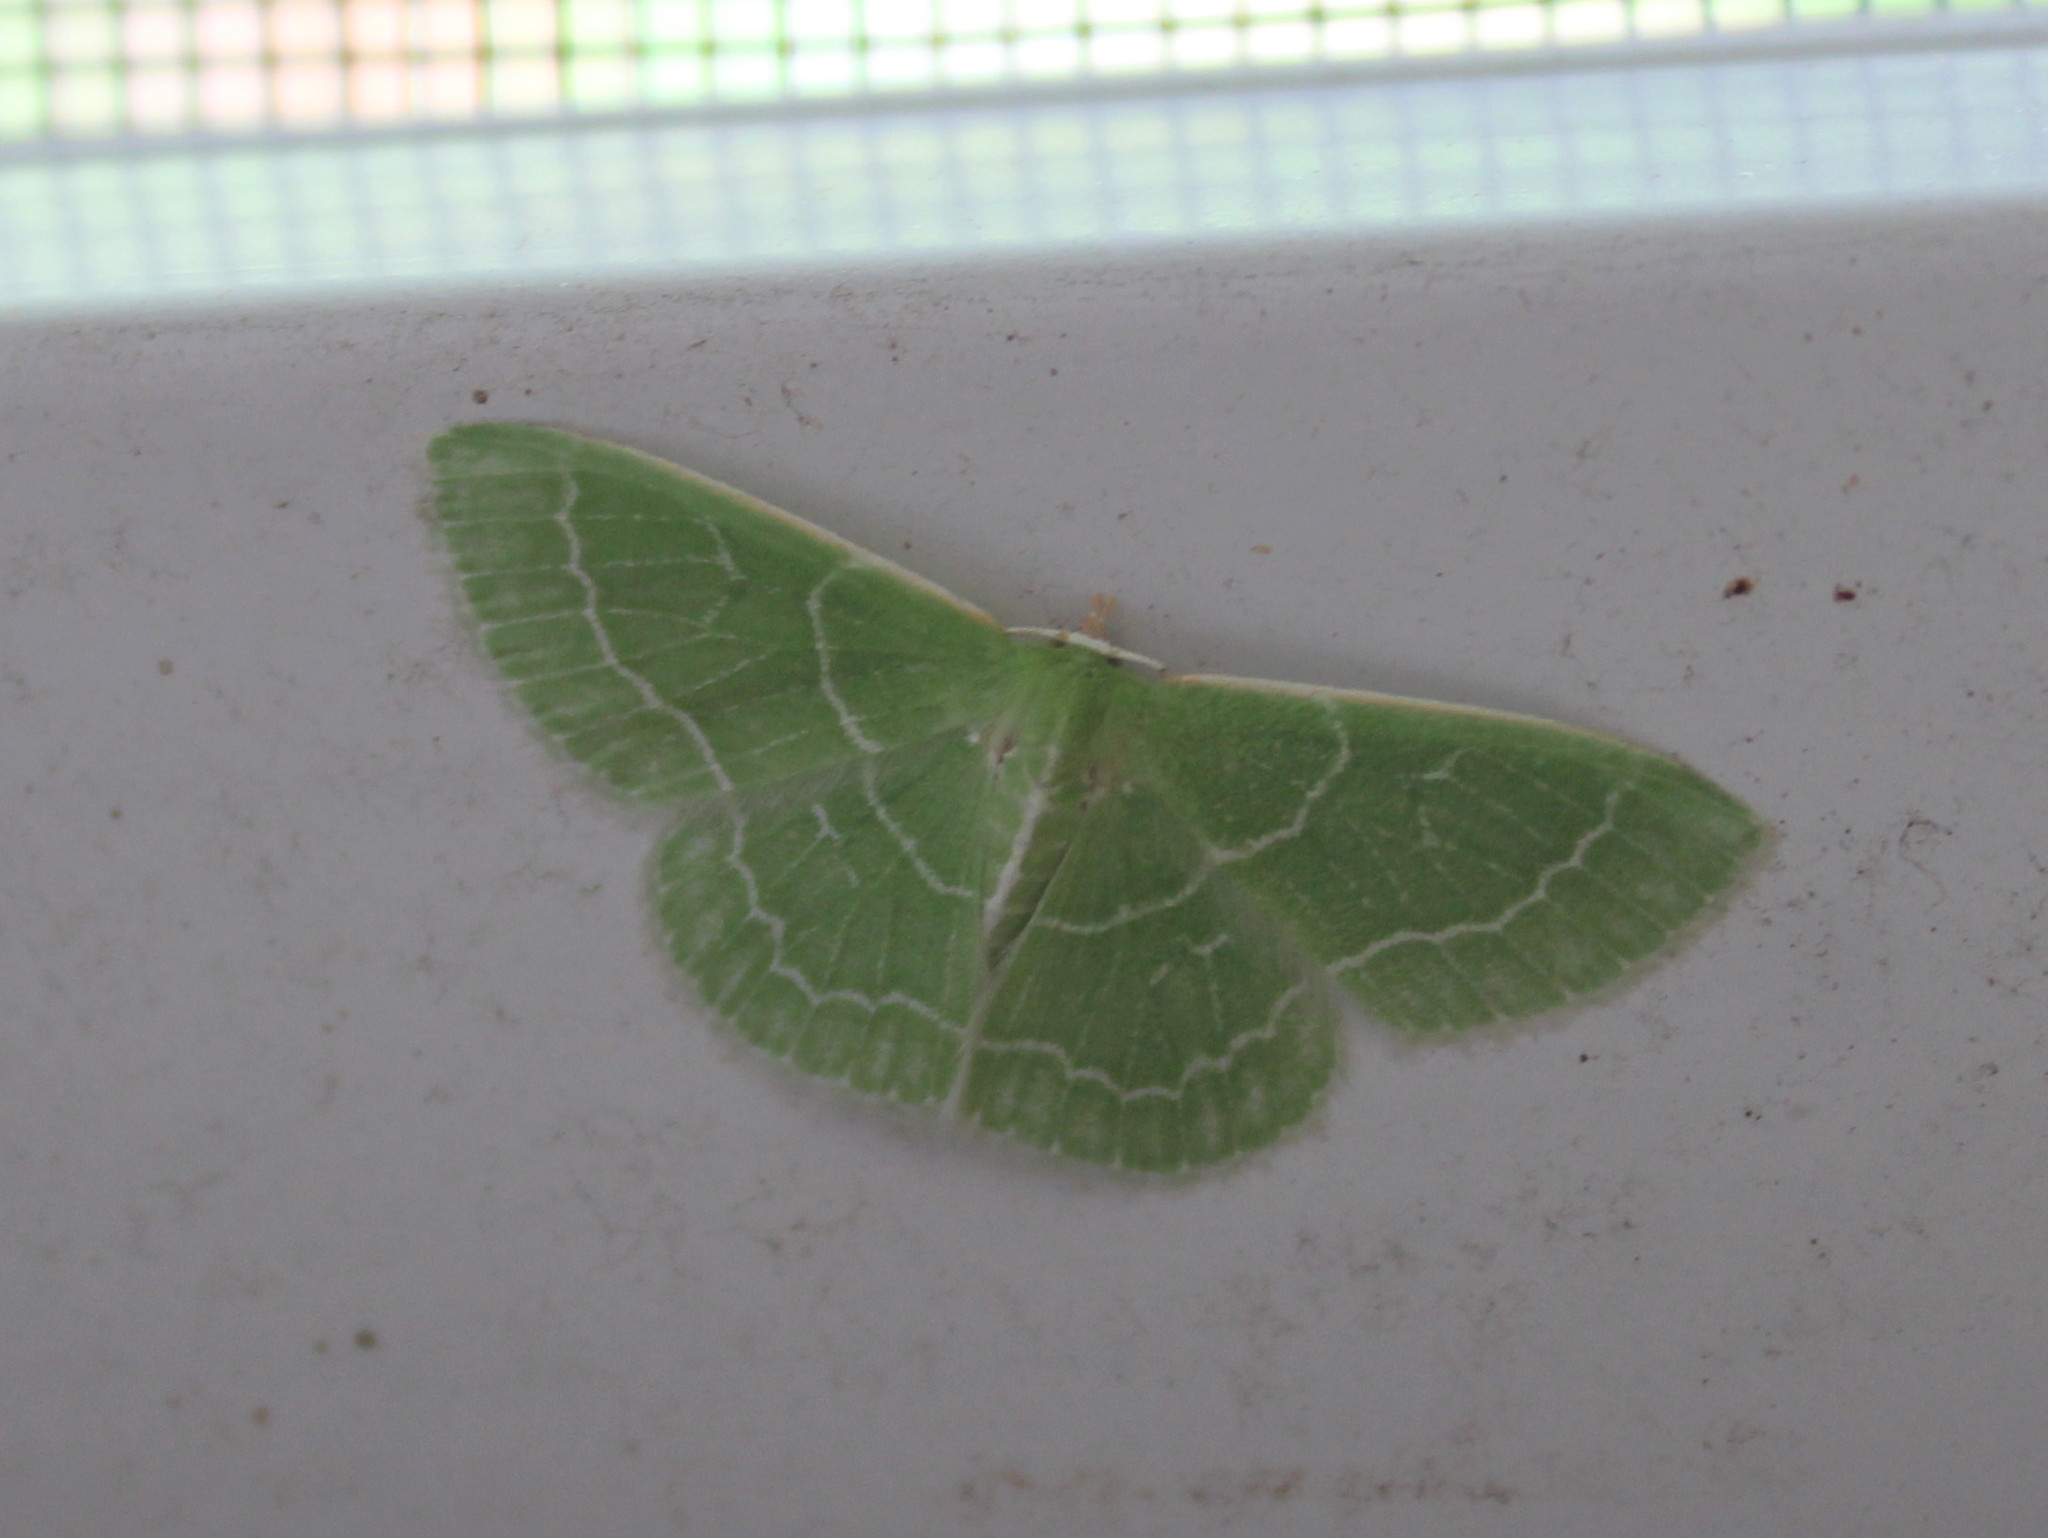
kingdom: Animalia
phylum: Arthropoda
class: Insecta
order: Lepidoptera
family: Geometridae
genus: Synchlora
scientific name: Synchlora aerata
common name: Wavy-lined emerald
